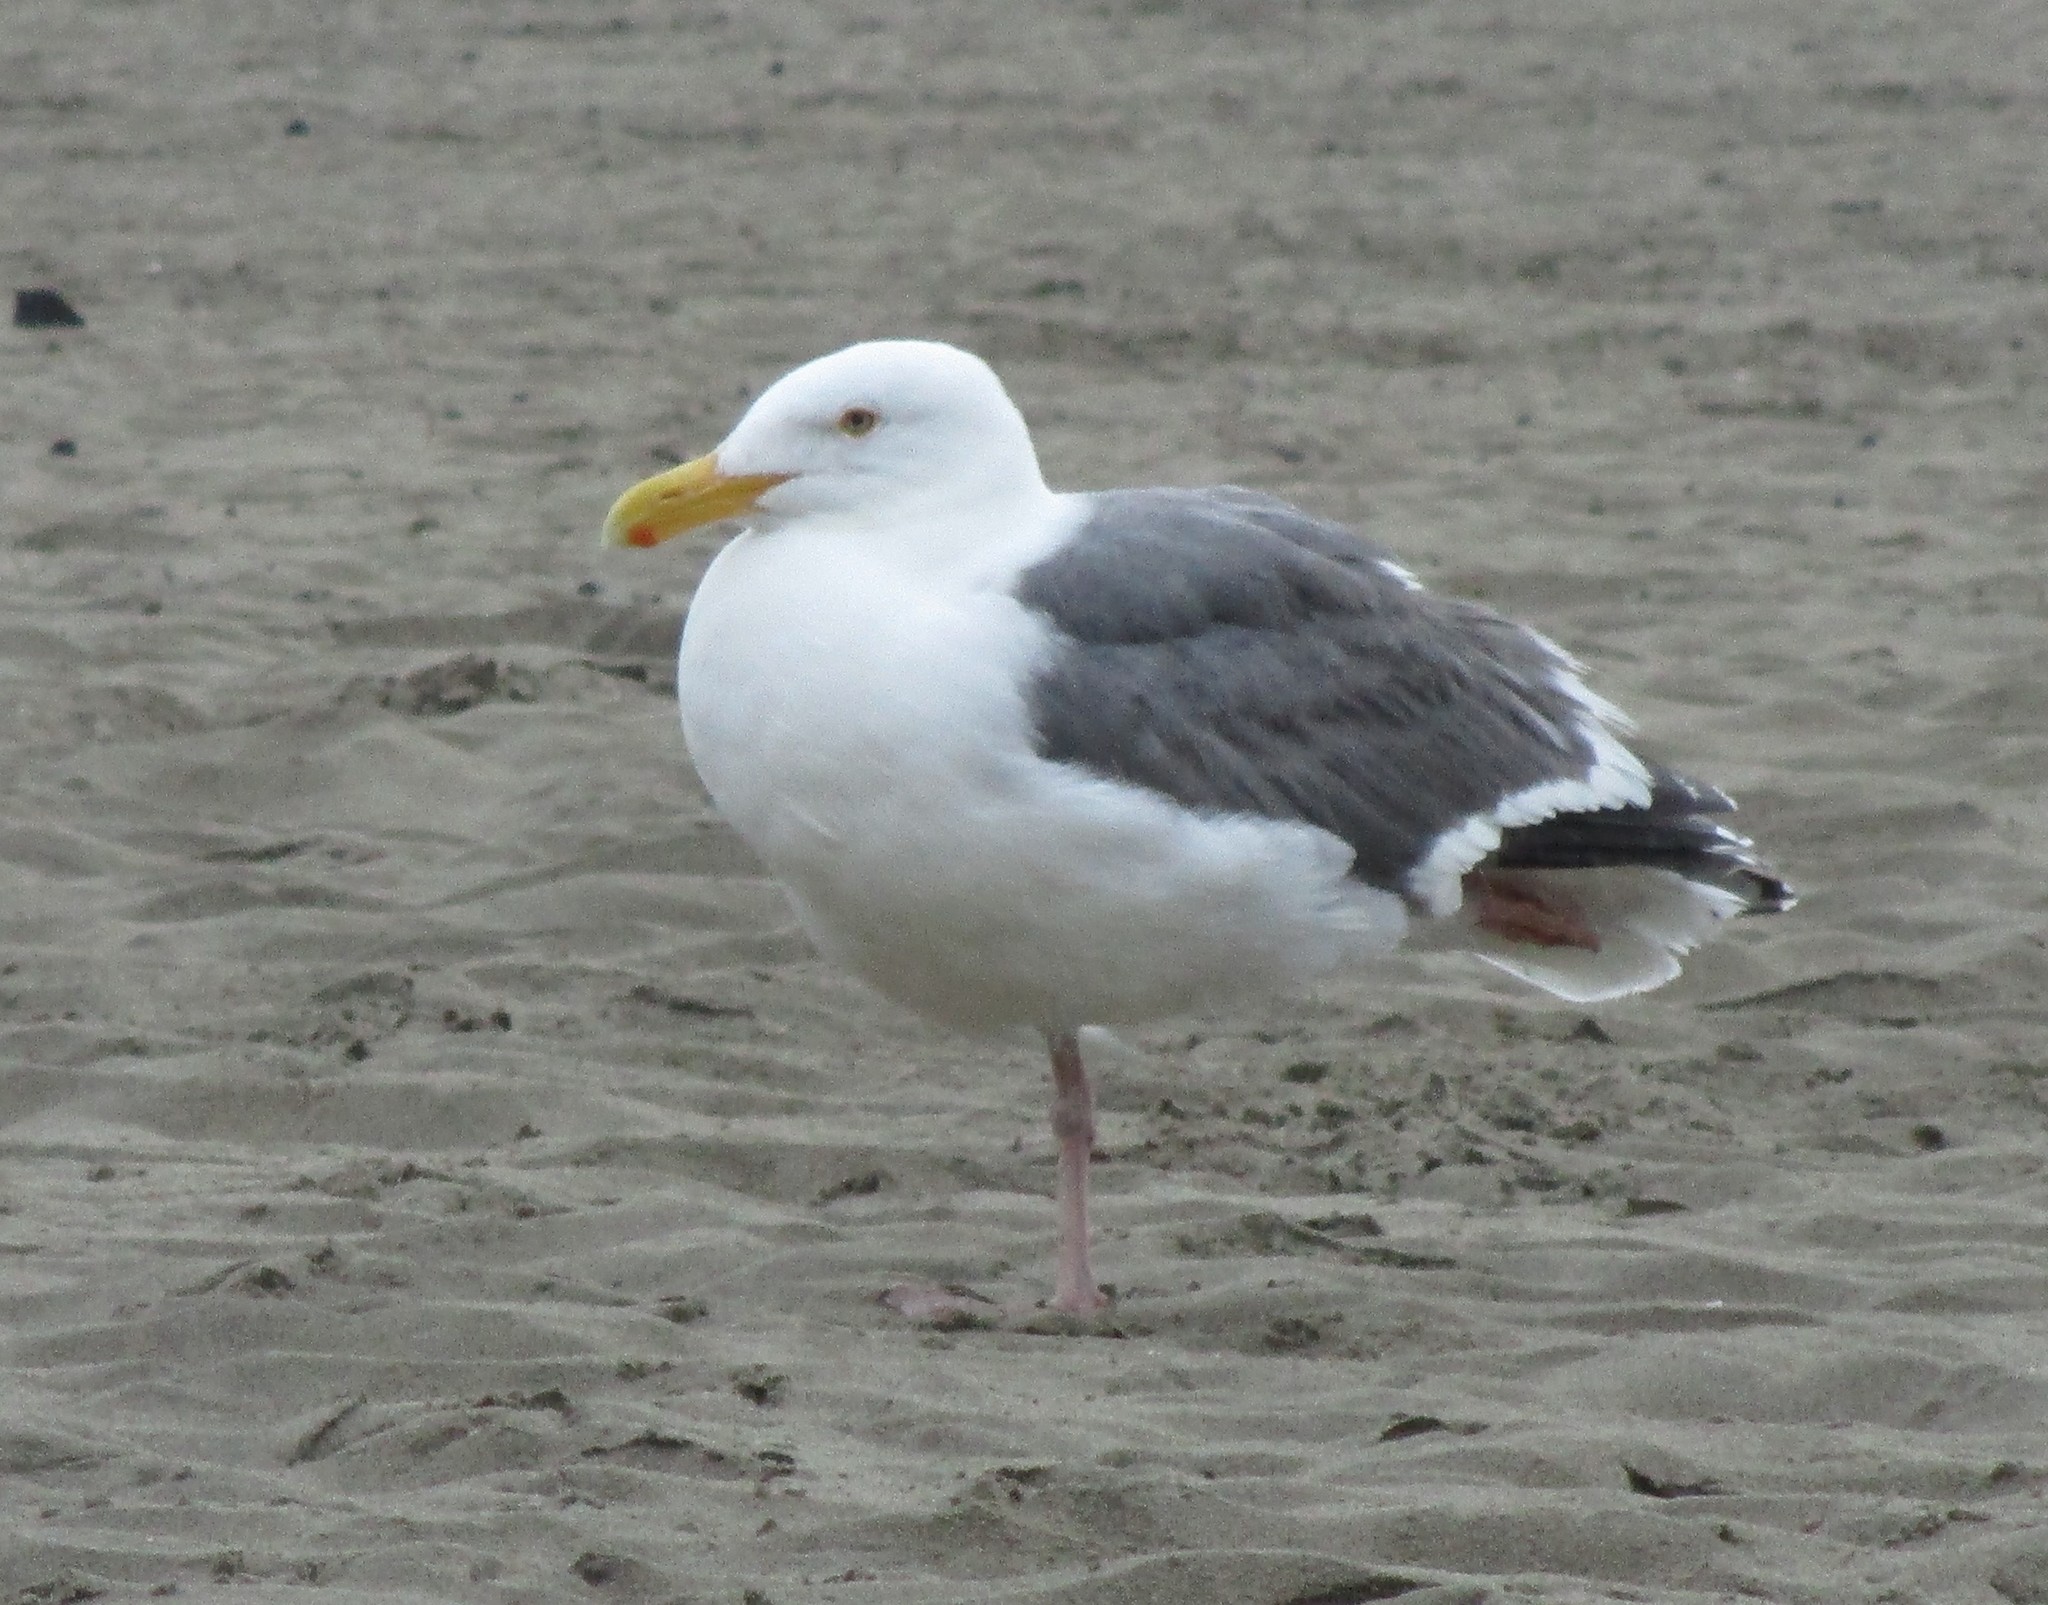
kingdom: Animalia
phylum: Chordata
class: Aves
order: Charadriiformes
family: Laridae
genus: Larus
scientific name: Larus occidentalis
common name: Western gull
